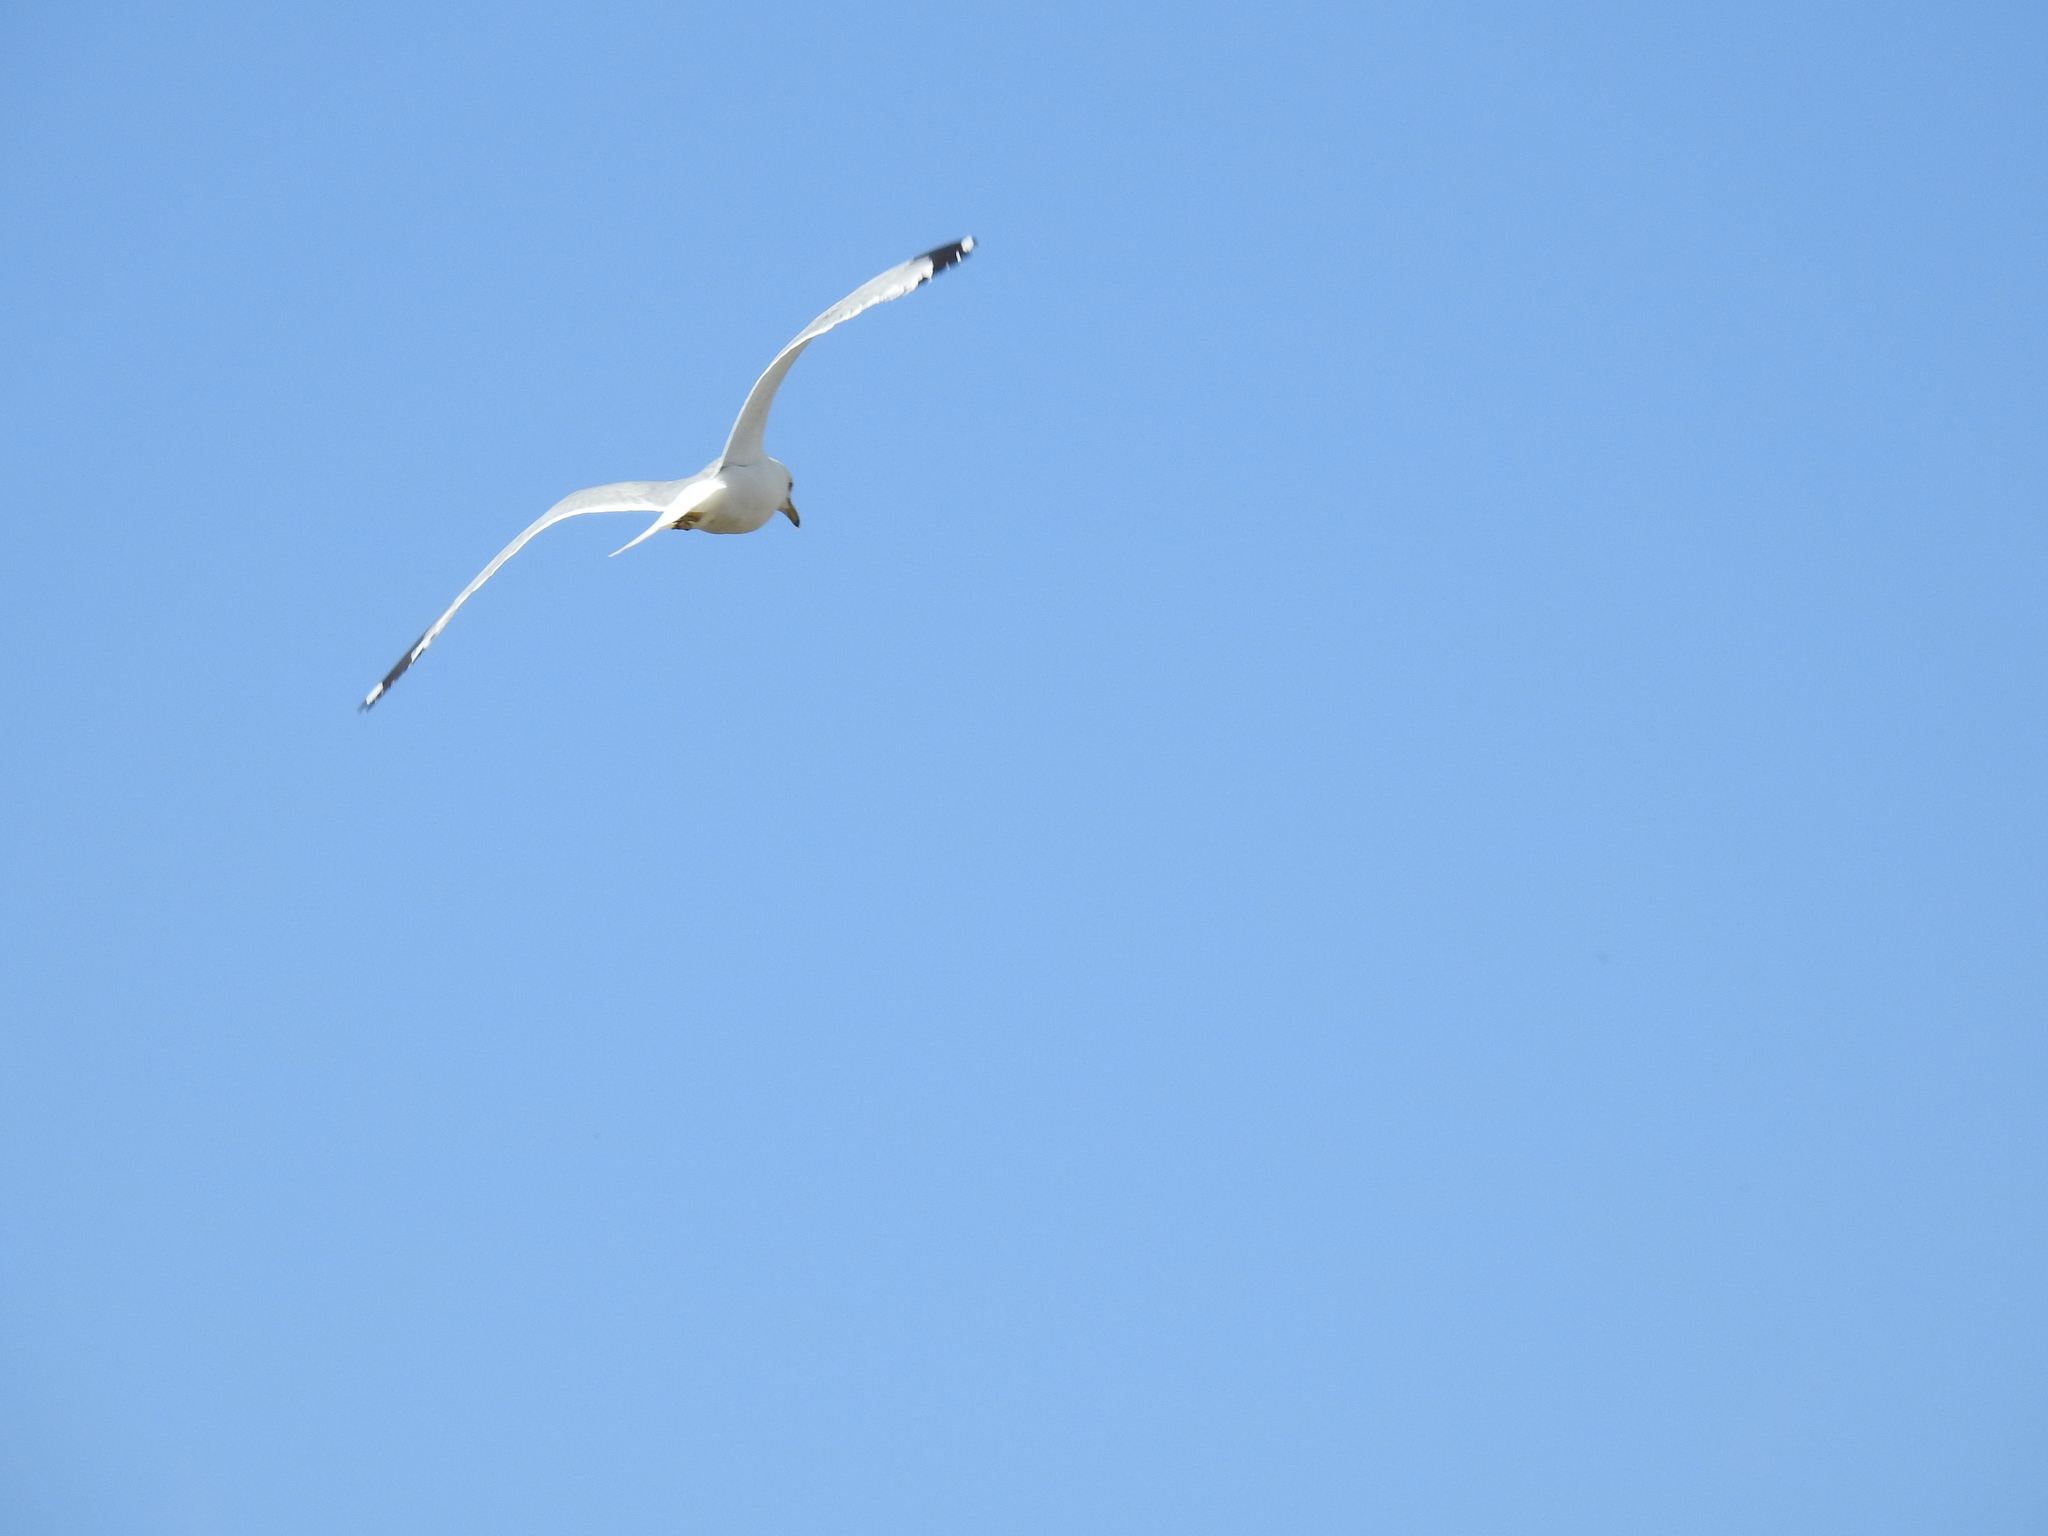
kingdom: Animalia
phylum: Chordata
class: Aves
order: Charadriiformes
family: Laridae
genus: Larus
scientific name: Larus delawarensis
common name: Ring-billed gull
